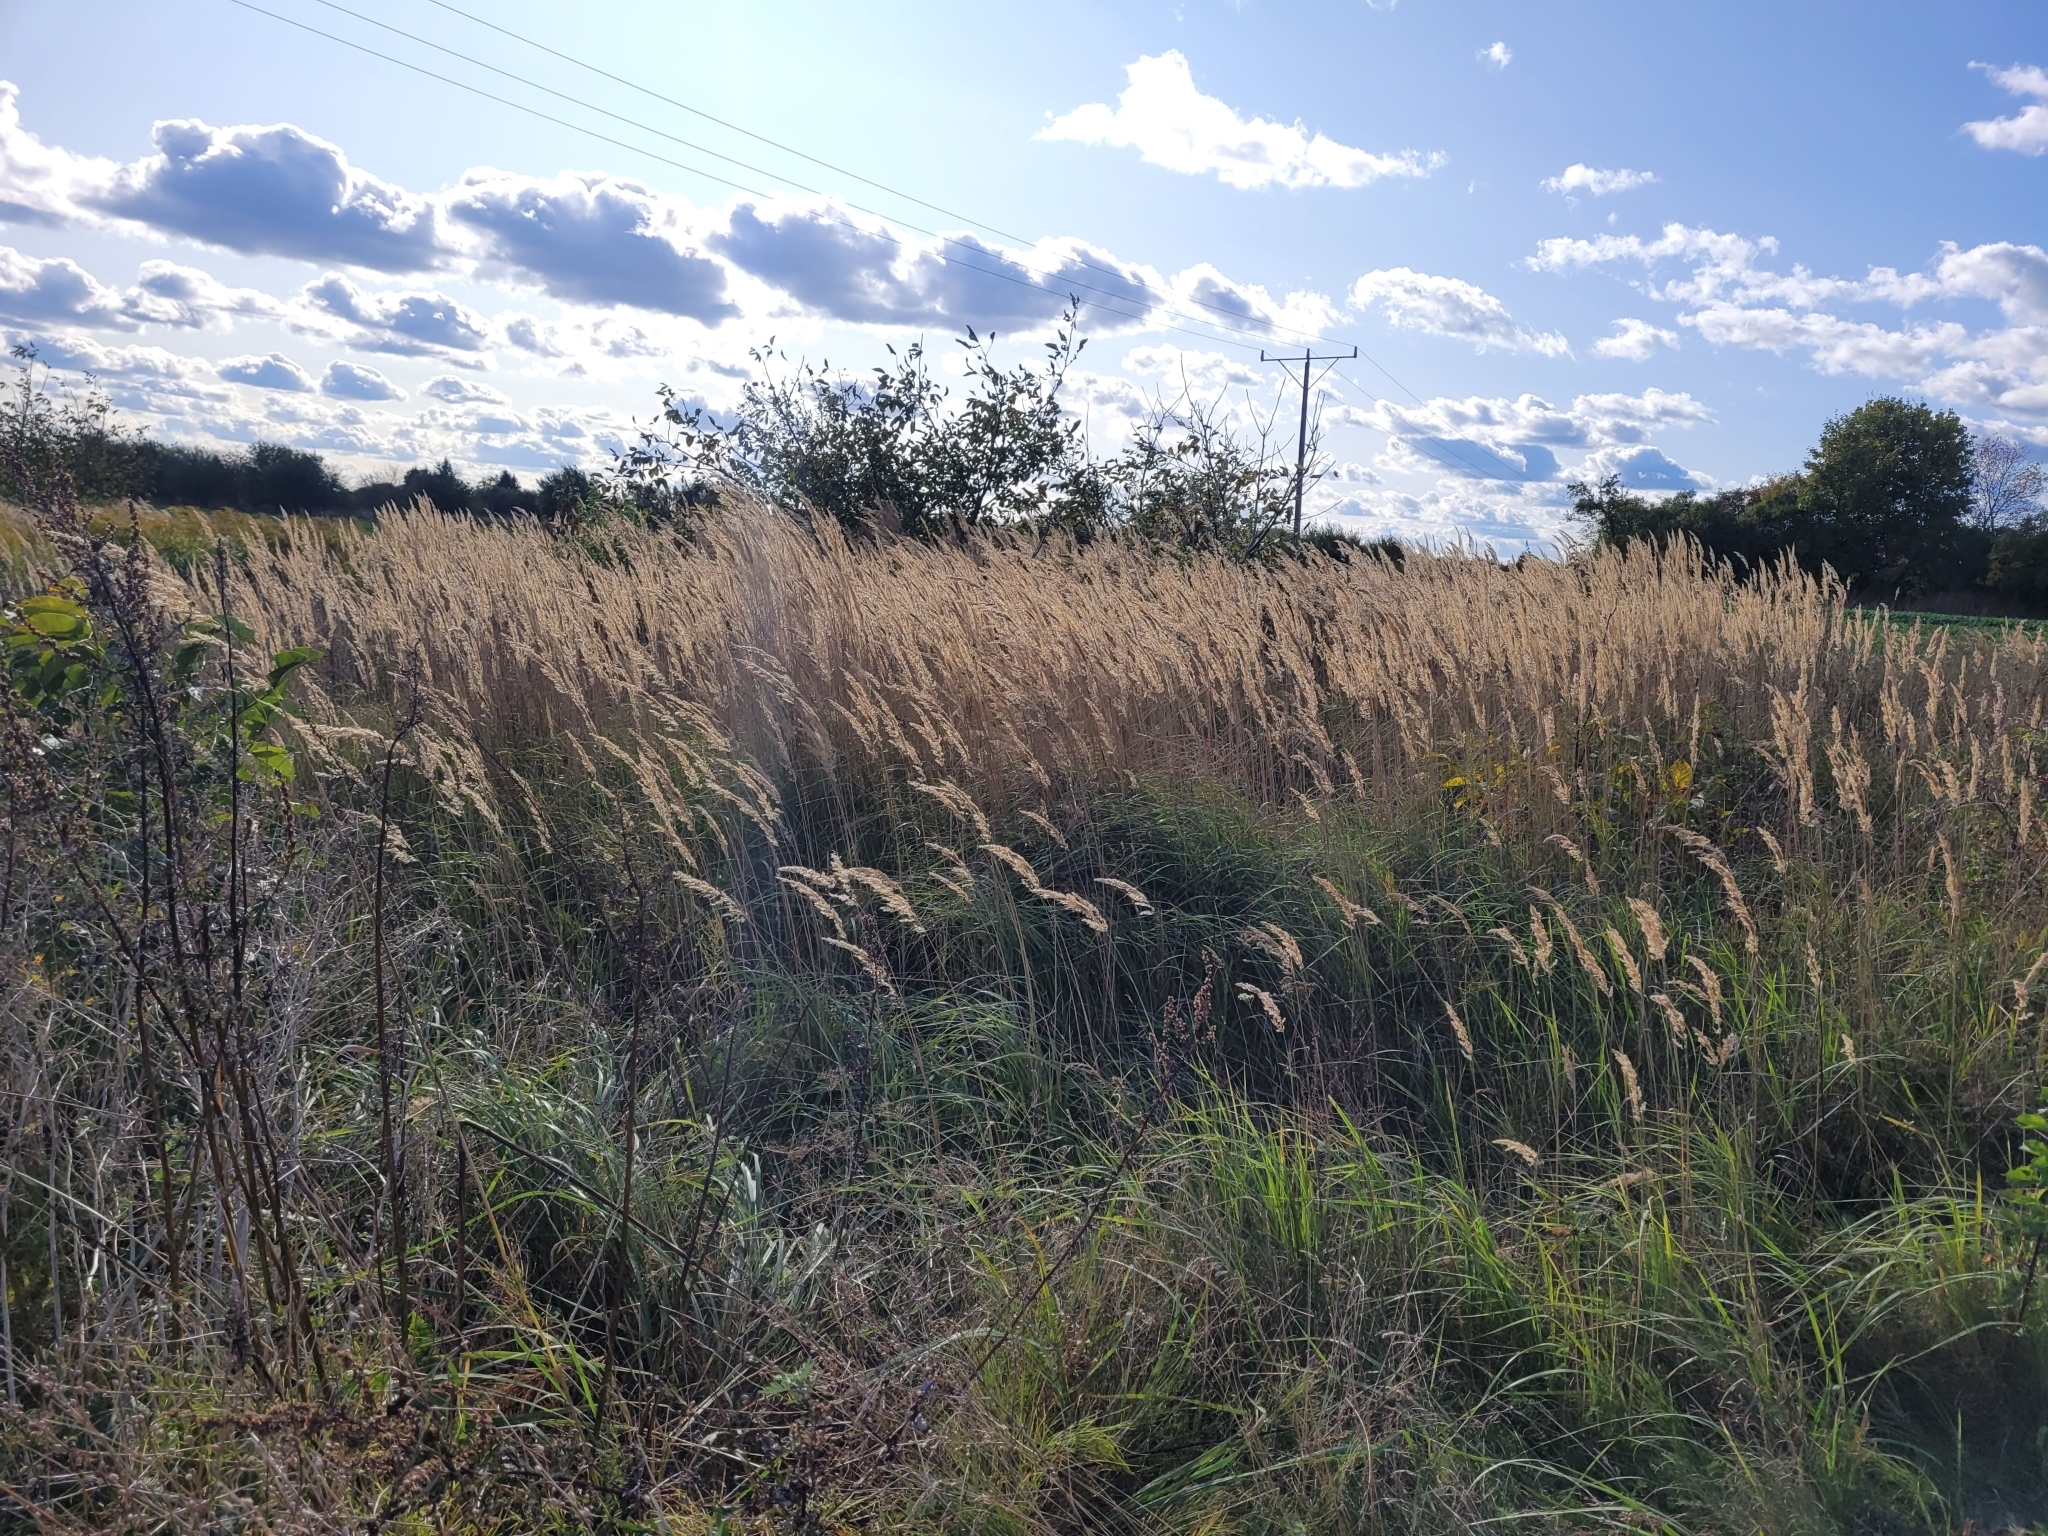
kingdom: Plantae
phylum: Tracheophyta
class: Liliopsida
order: Poales
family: Poaceae
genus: Calamagrostis
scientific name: Calamagrostis epigejos
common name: Wood small-reed
